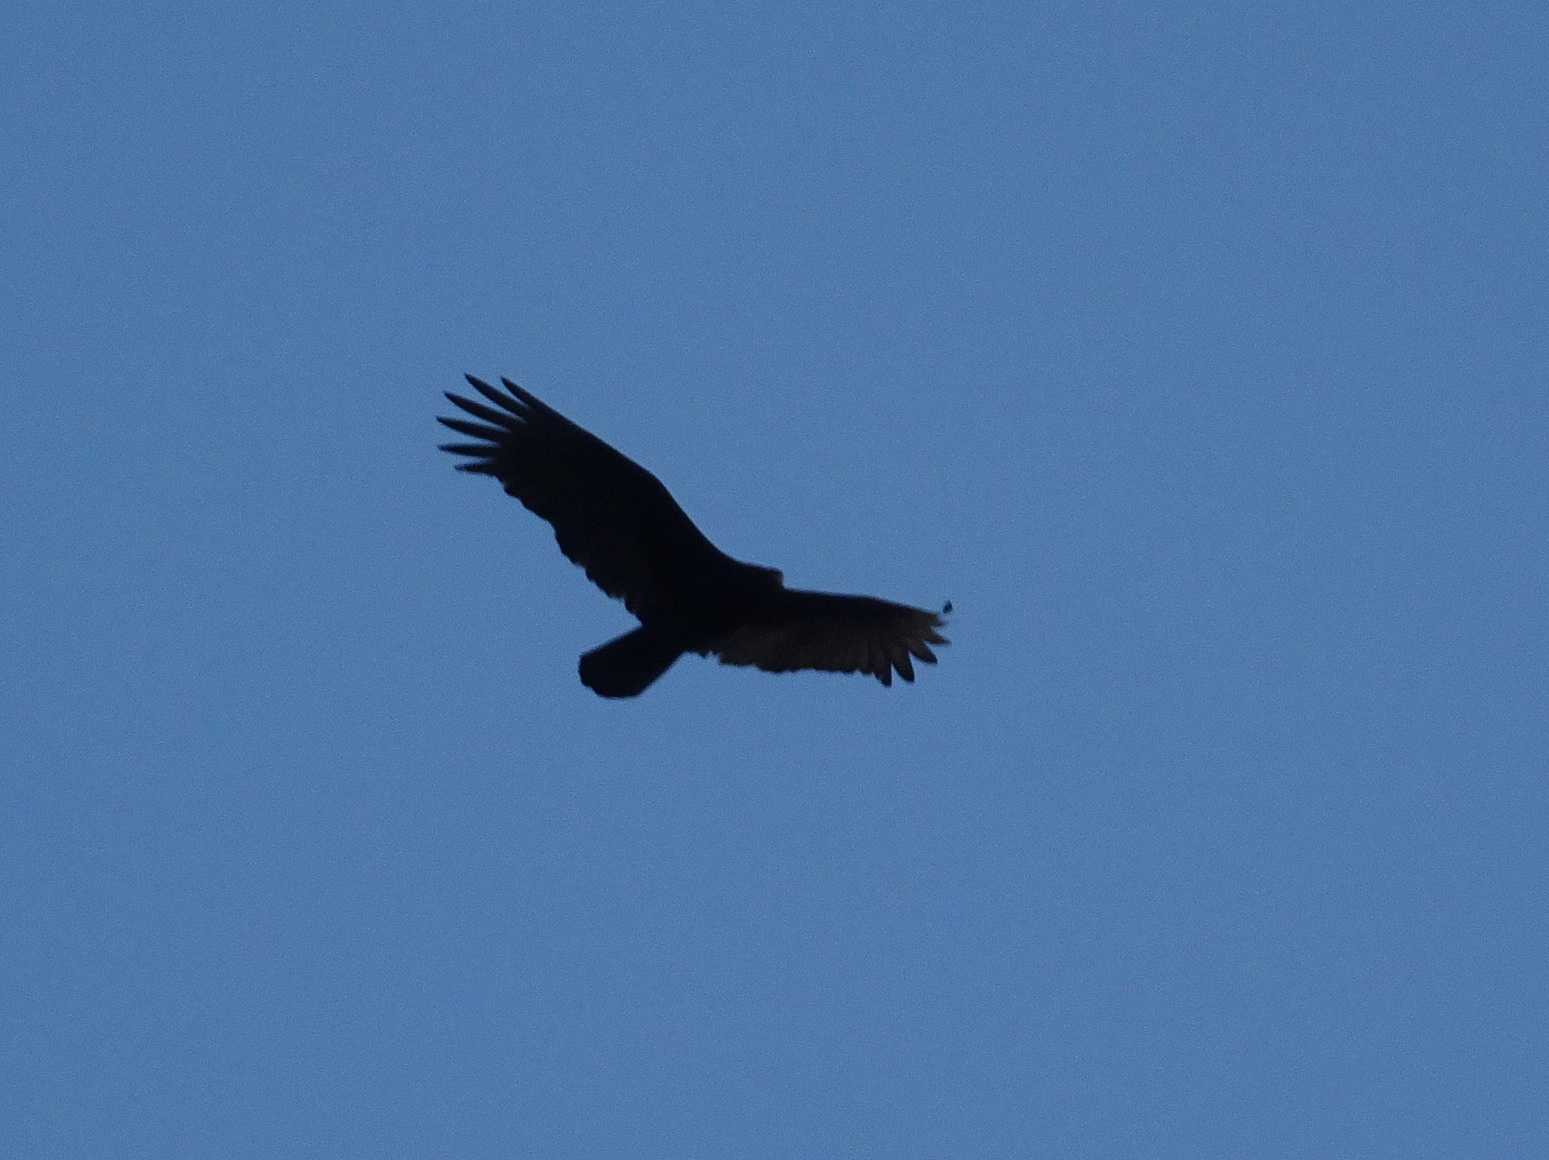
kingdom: Animalia
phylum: Chordata
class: Aves
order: Accipitriformes
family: Cathartidae
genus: Cathartes
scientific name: Cathartes aura
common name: Turkey vulture
